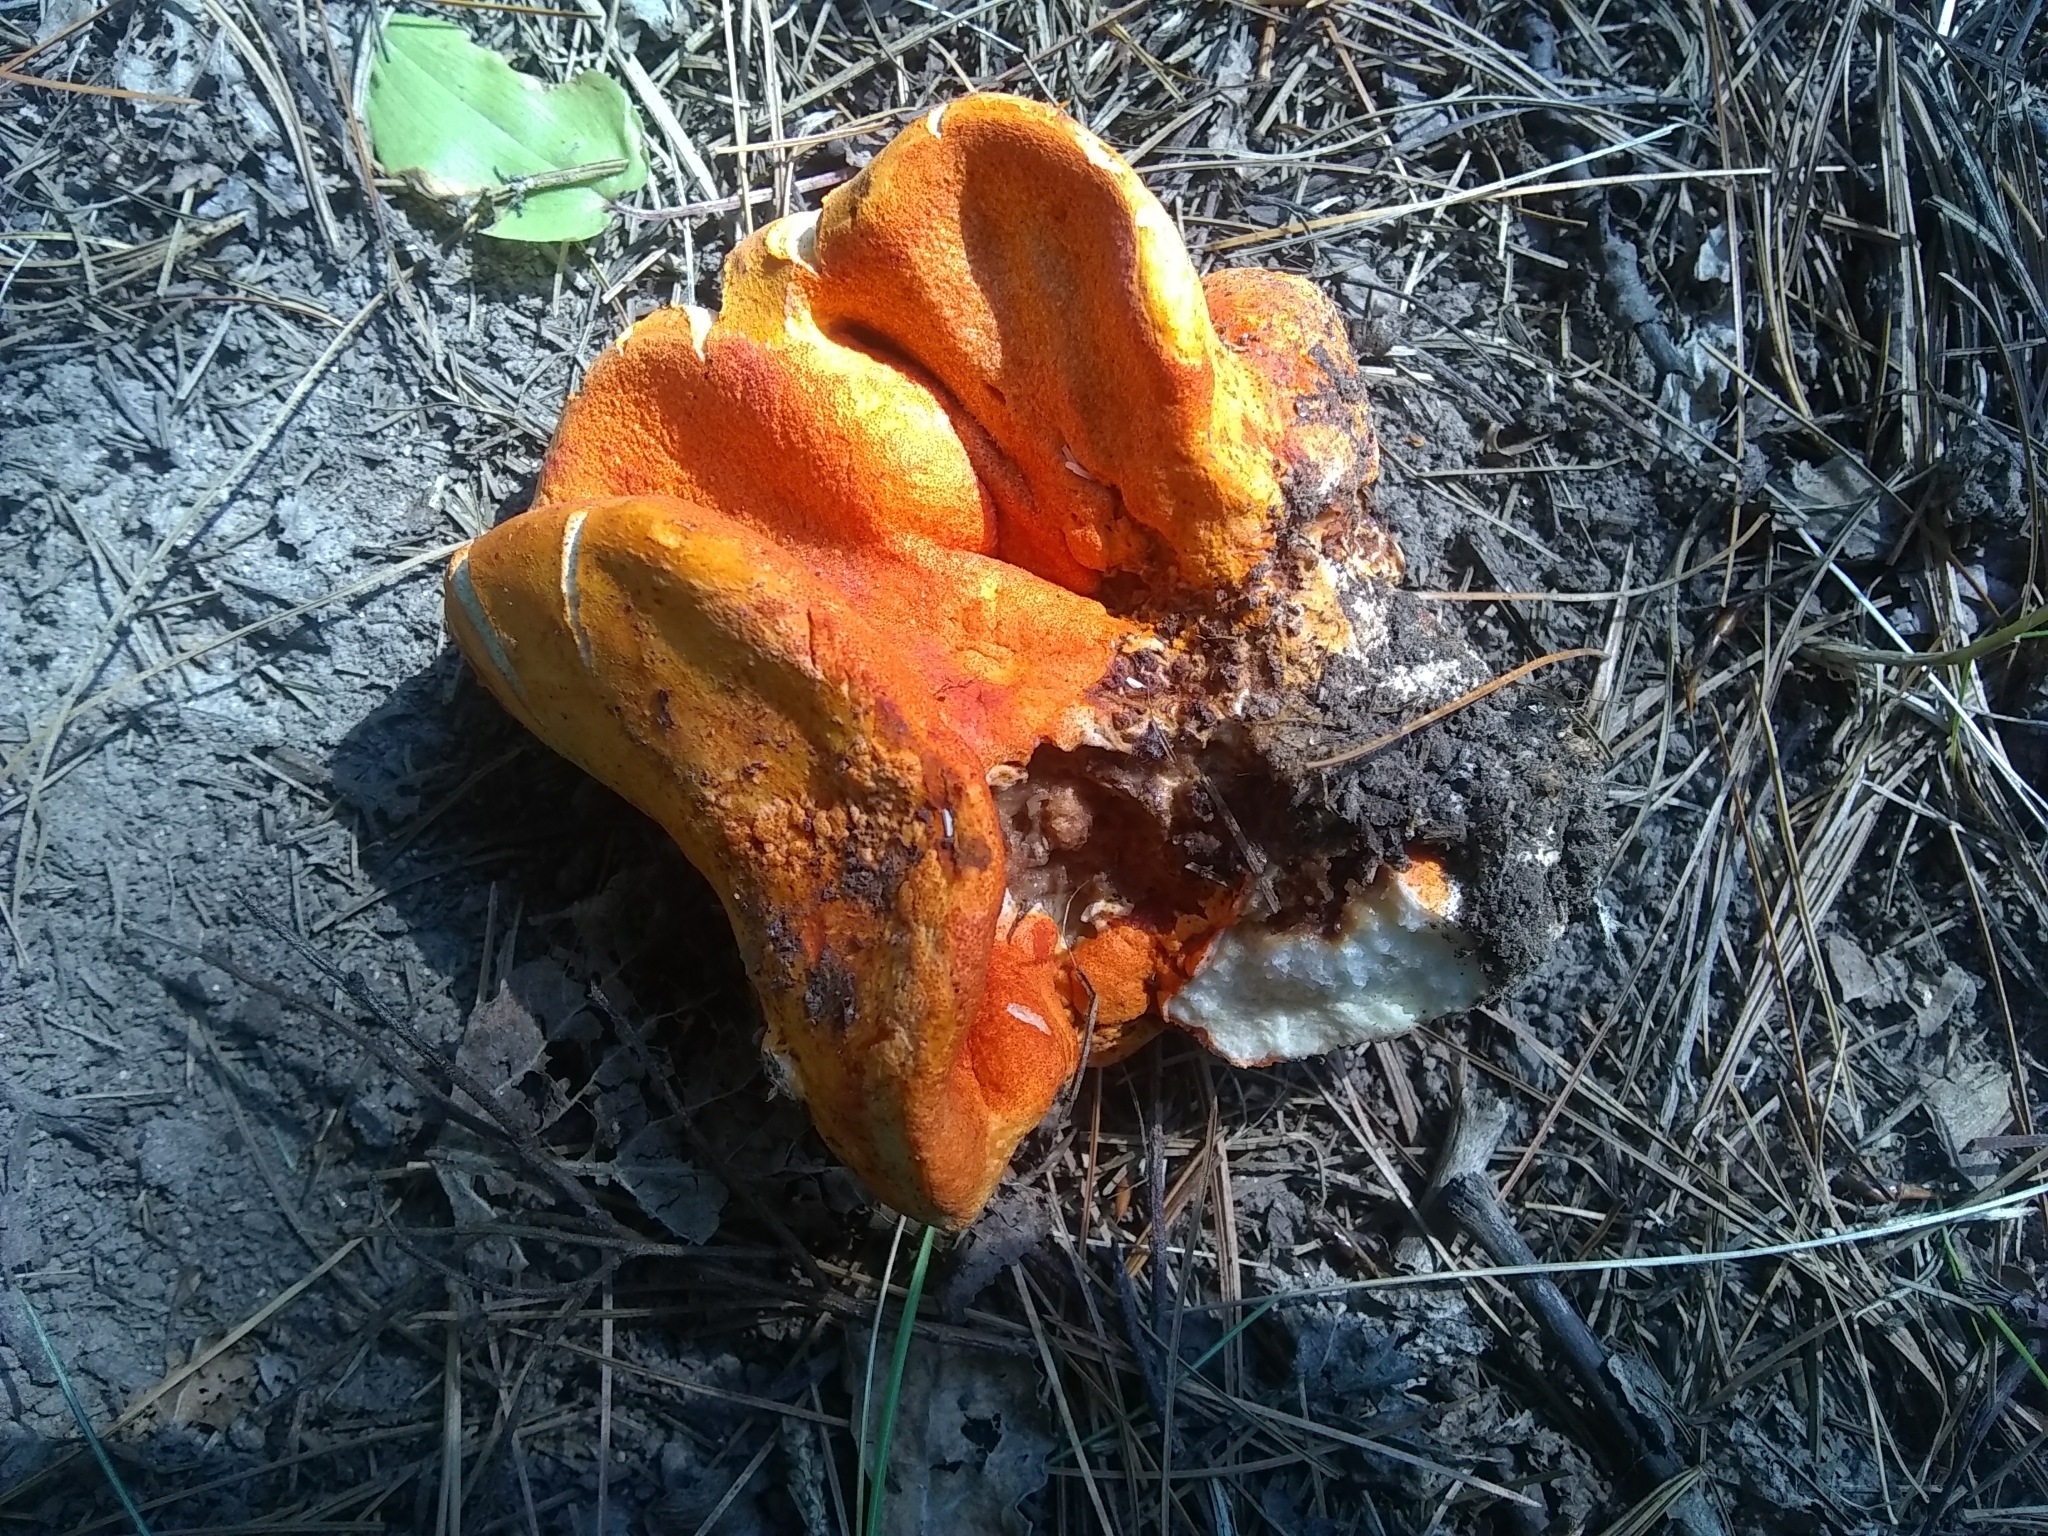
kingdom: Fungi
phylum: Ascomycota
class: Sordariomycetes
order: Hypocreales
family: Hypocreaceae
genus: Hypomyces
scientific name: Hypomyces lactifluorum
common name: Lobster mushroom
